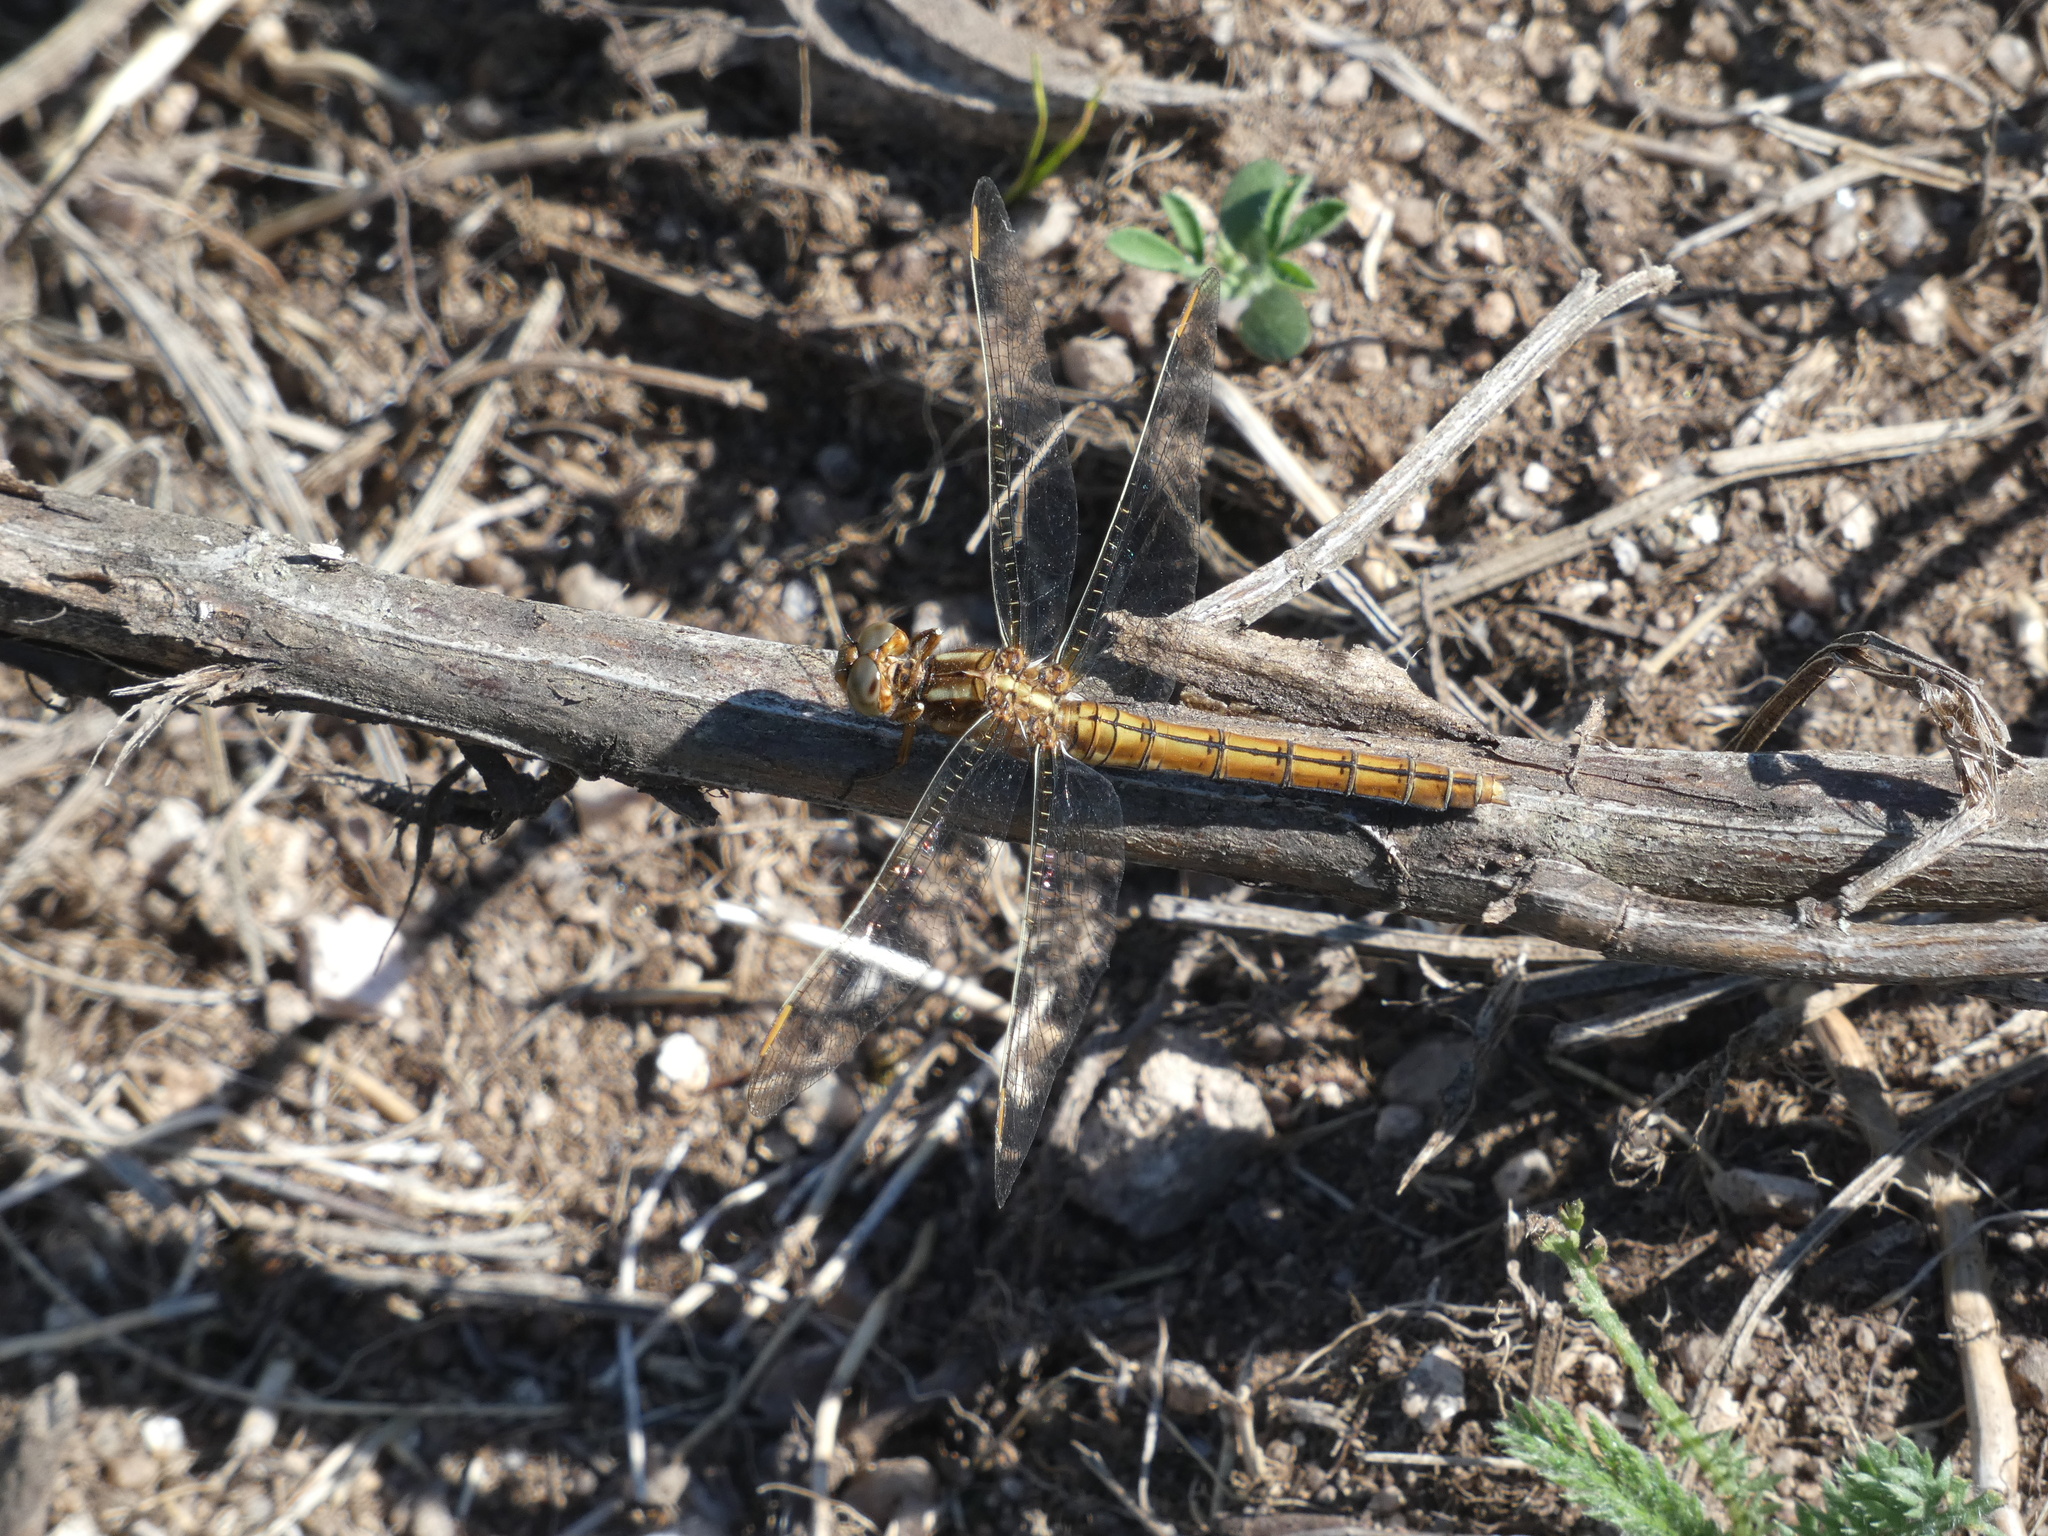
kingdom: Animalia
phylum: Arthropoda
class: Insecta
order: Odonata
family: Libellulidae
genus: Orthetrum
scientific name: Orthetrum coerulescens
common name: Keeled skimmer
